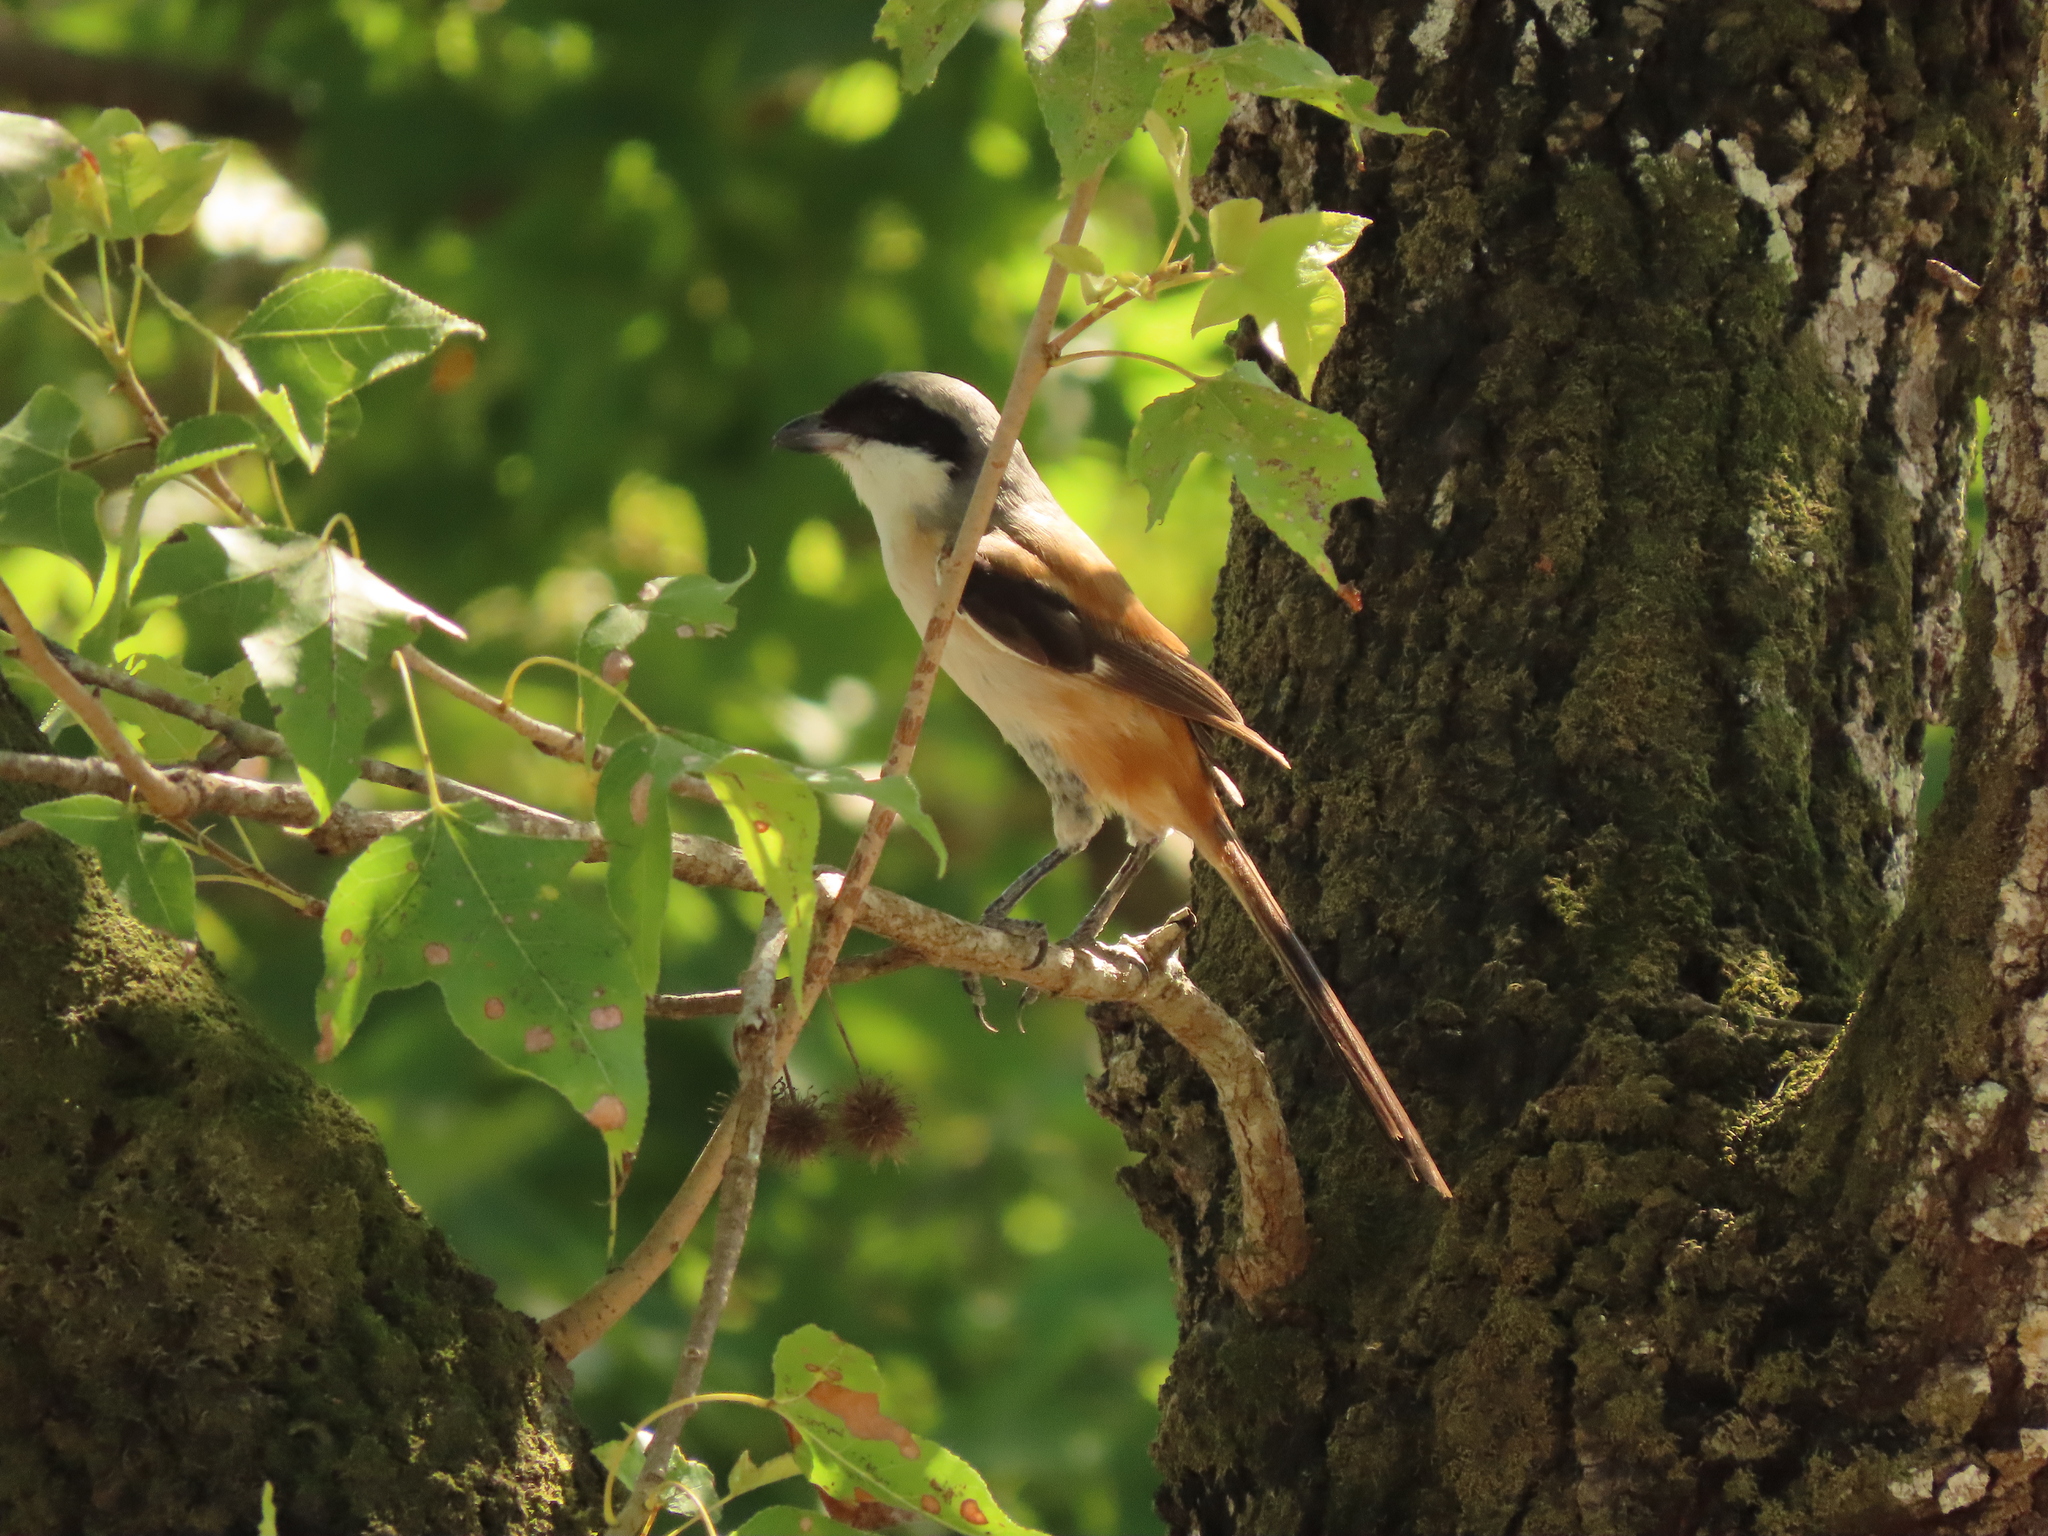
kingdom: Animalia
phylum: Chordata
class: Aves
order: Passeriformes
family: Laniidae
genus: Lanius
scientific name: Lanius schach
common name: Long-tailed shrike
